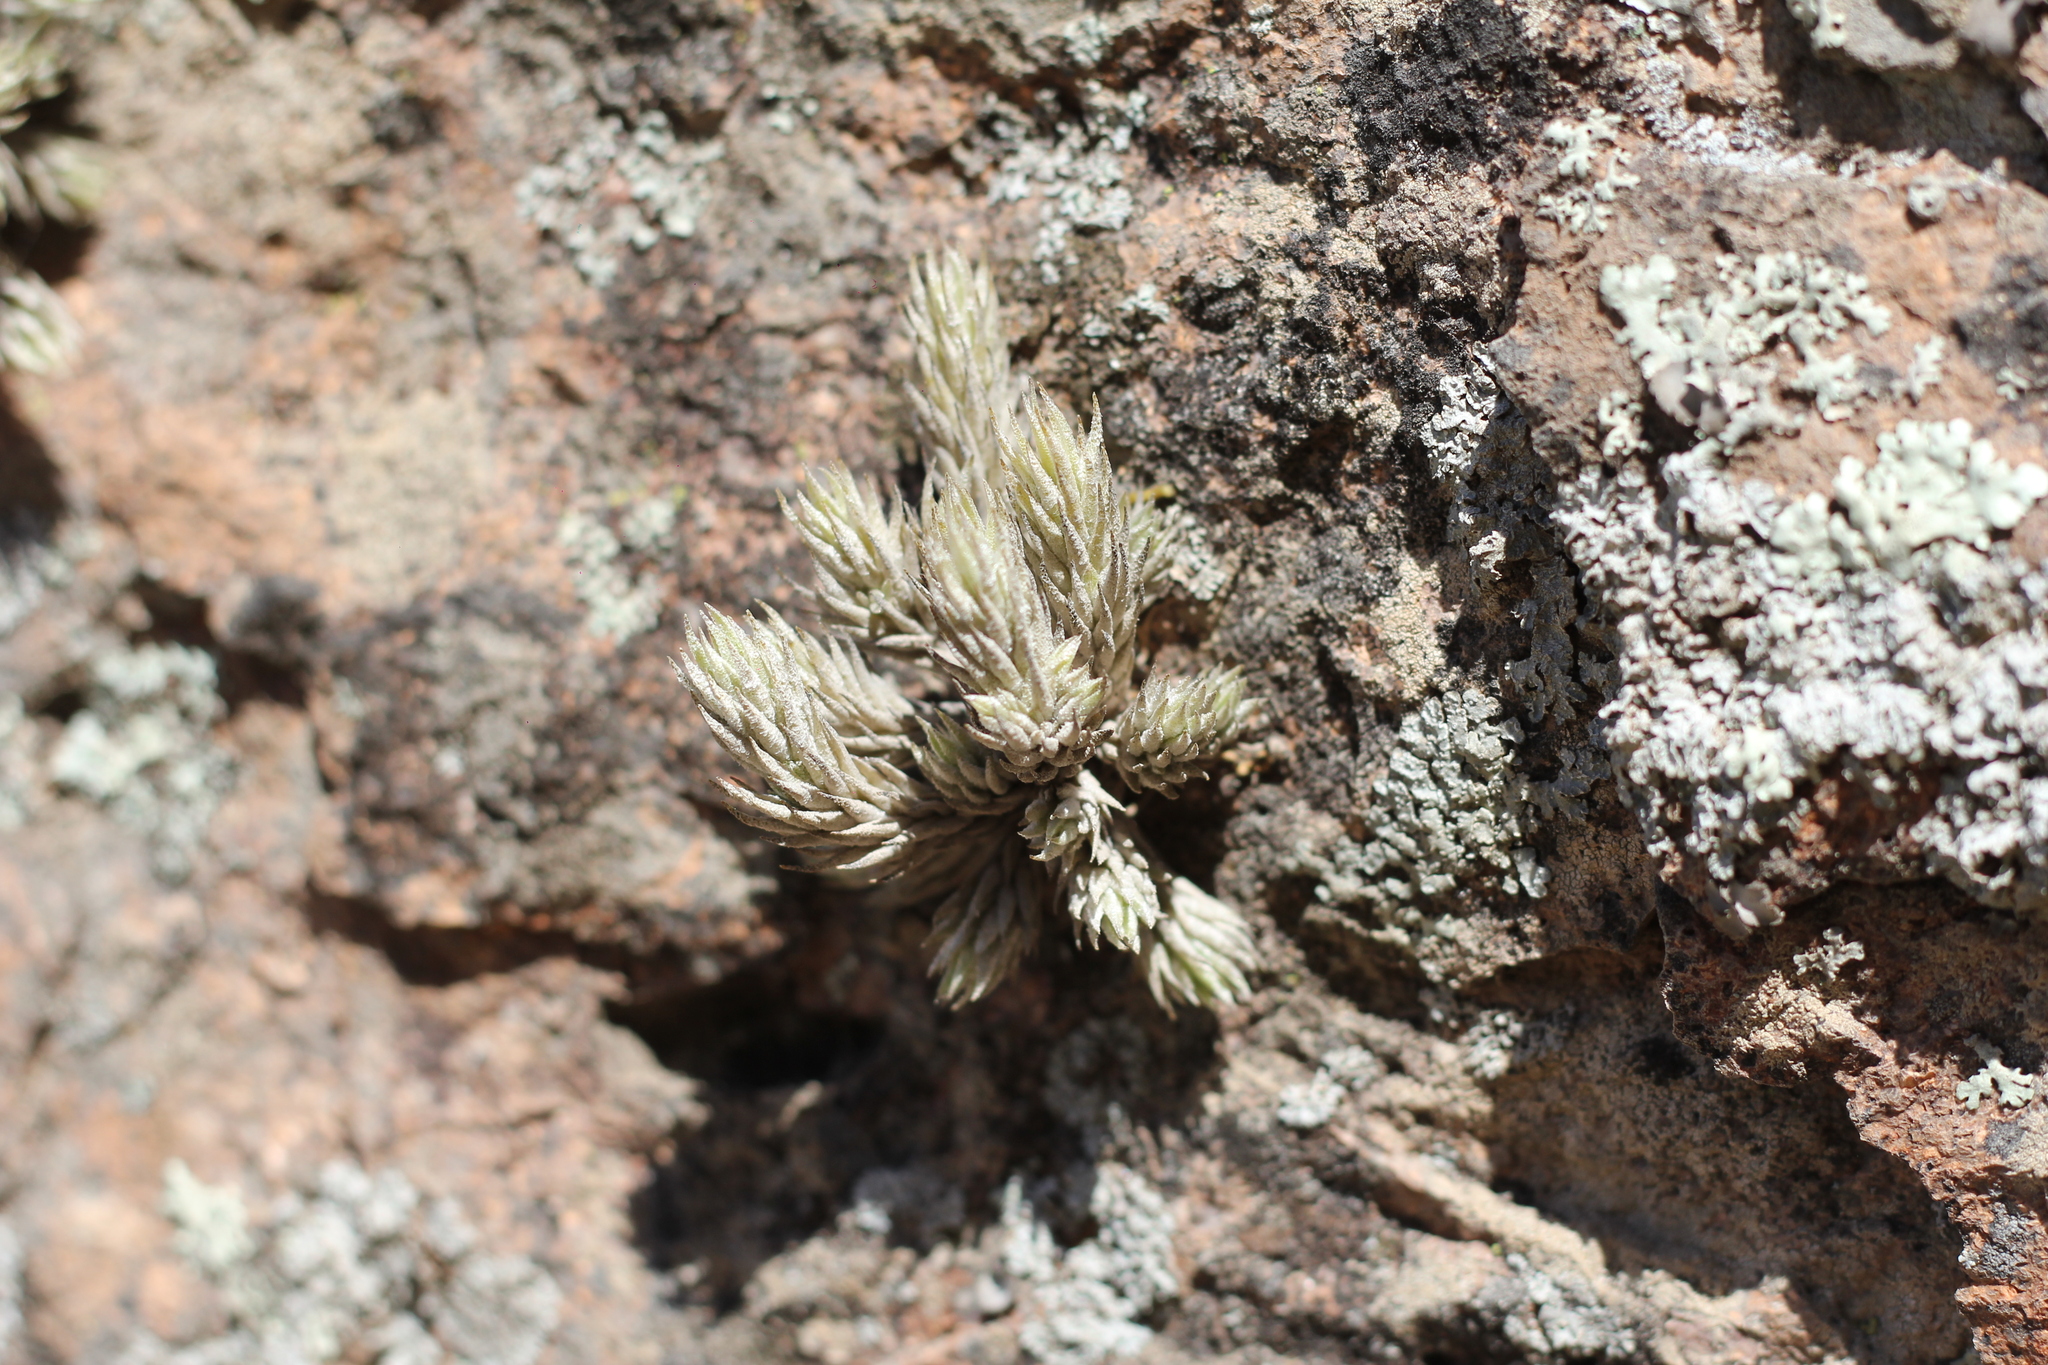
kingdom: Plantae
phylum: Tracheophyta
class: Liliopsida
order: Poales
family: Bromeliaceae
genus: Tillandsia
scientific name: Tillandsia pedicellata
